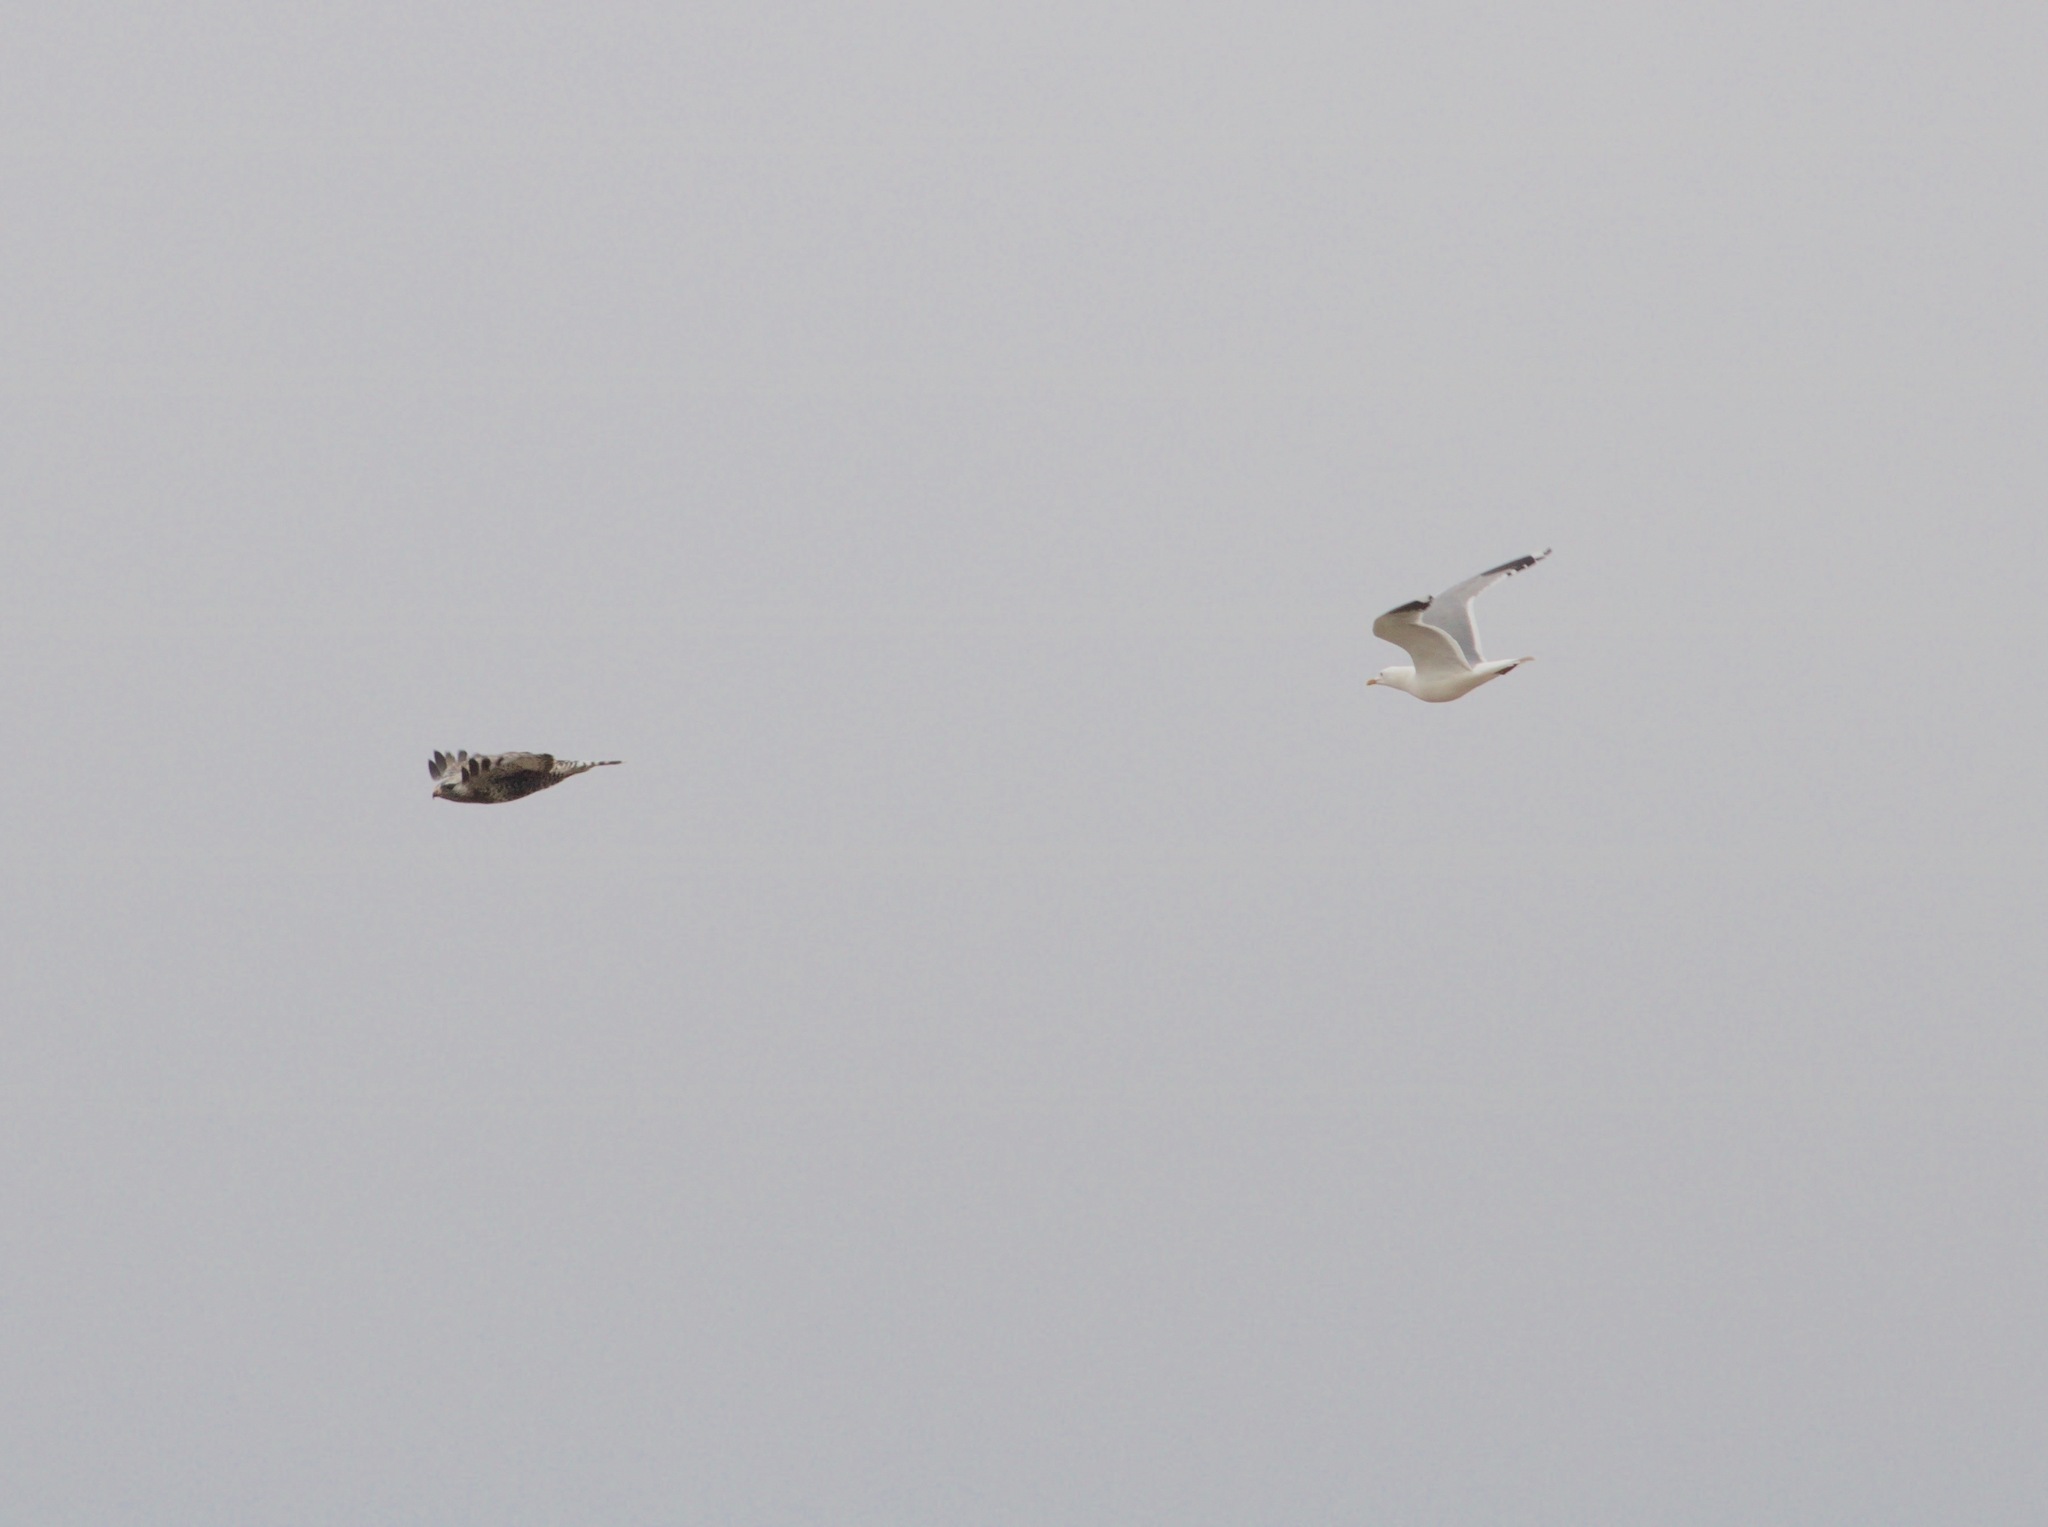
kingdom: Animalia
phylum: Chordata
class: Aves
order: Accipitriformes
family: Accipitridae
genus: Buteo
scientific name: Buteo lagopus
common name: Rough-legged buzzard
